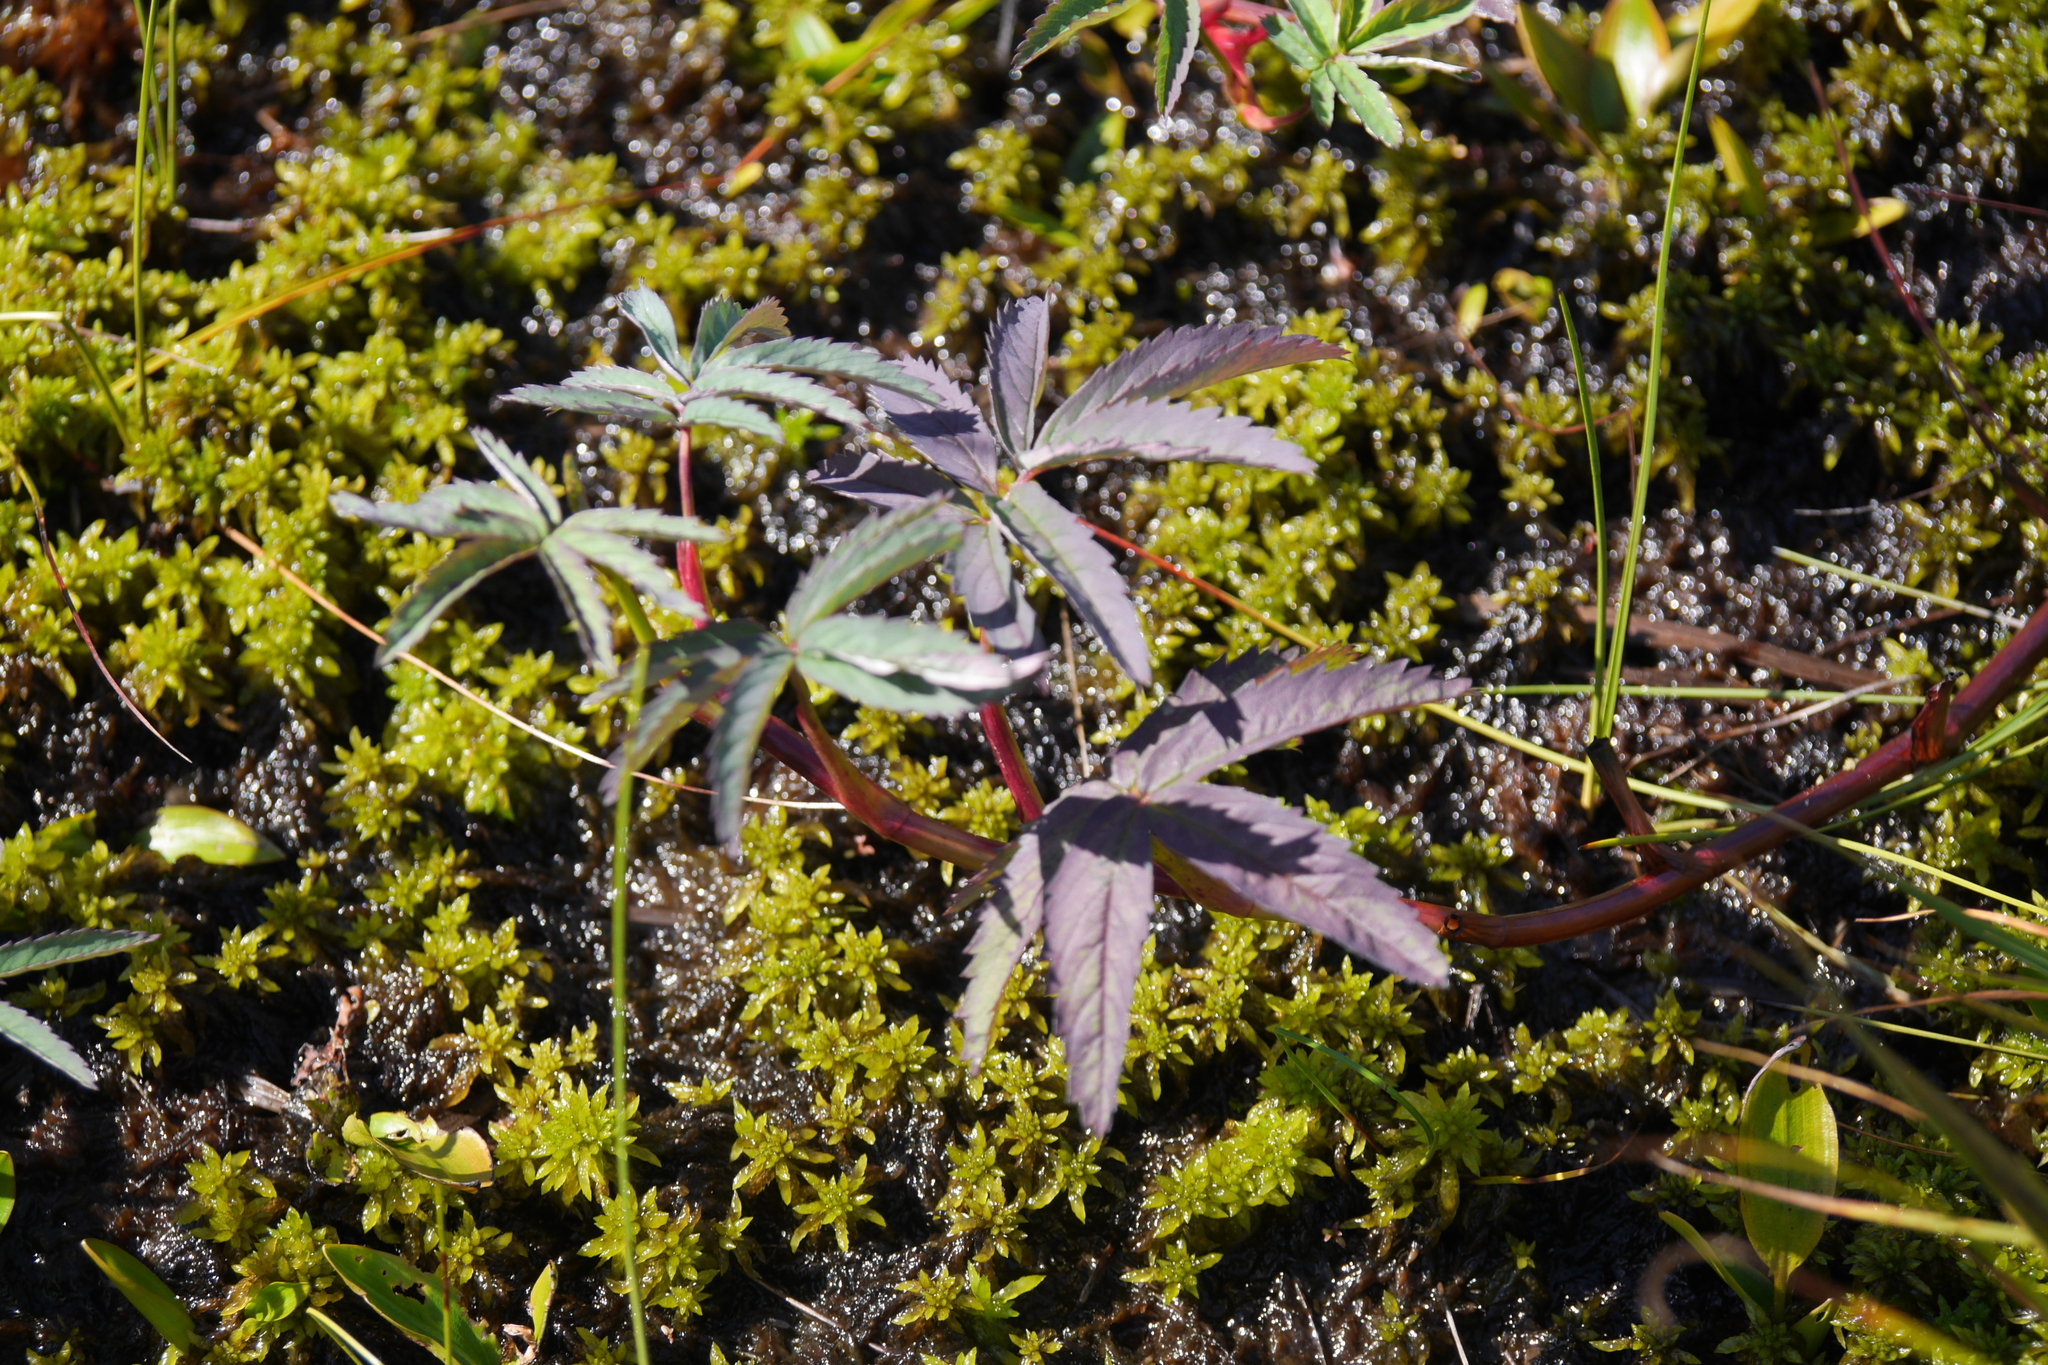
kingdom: Plantae
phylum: Tracheophyta
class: Magnoliopsida
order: Rosales
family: Rosaceae
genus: Comarum
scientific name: Comarum palustre
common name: Marsh cinquefoil
